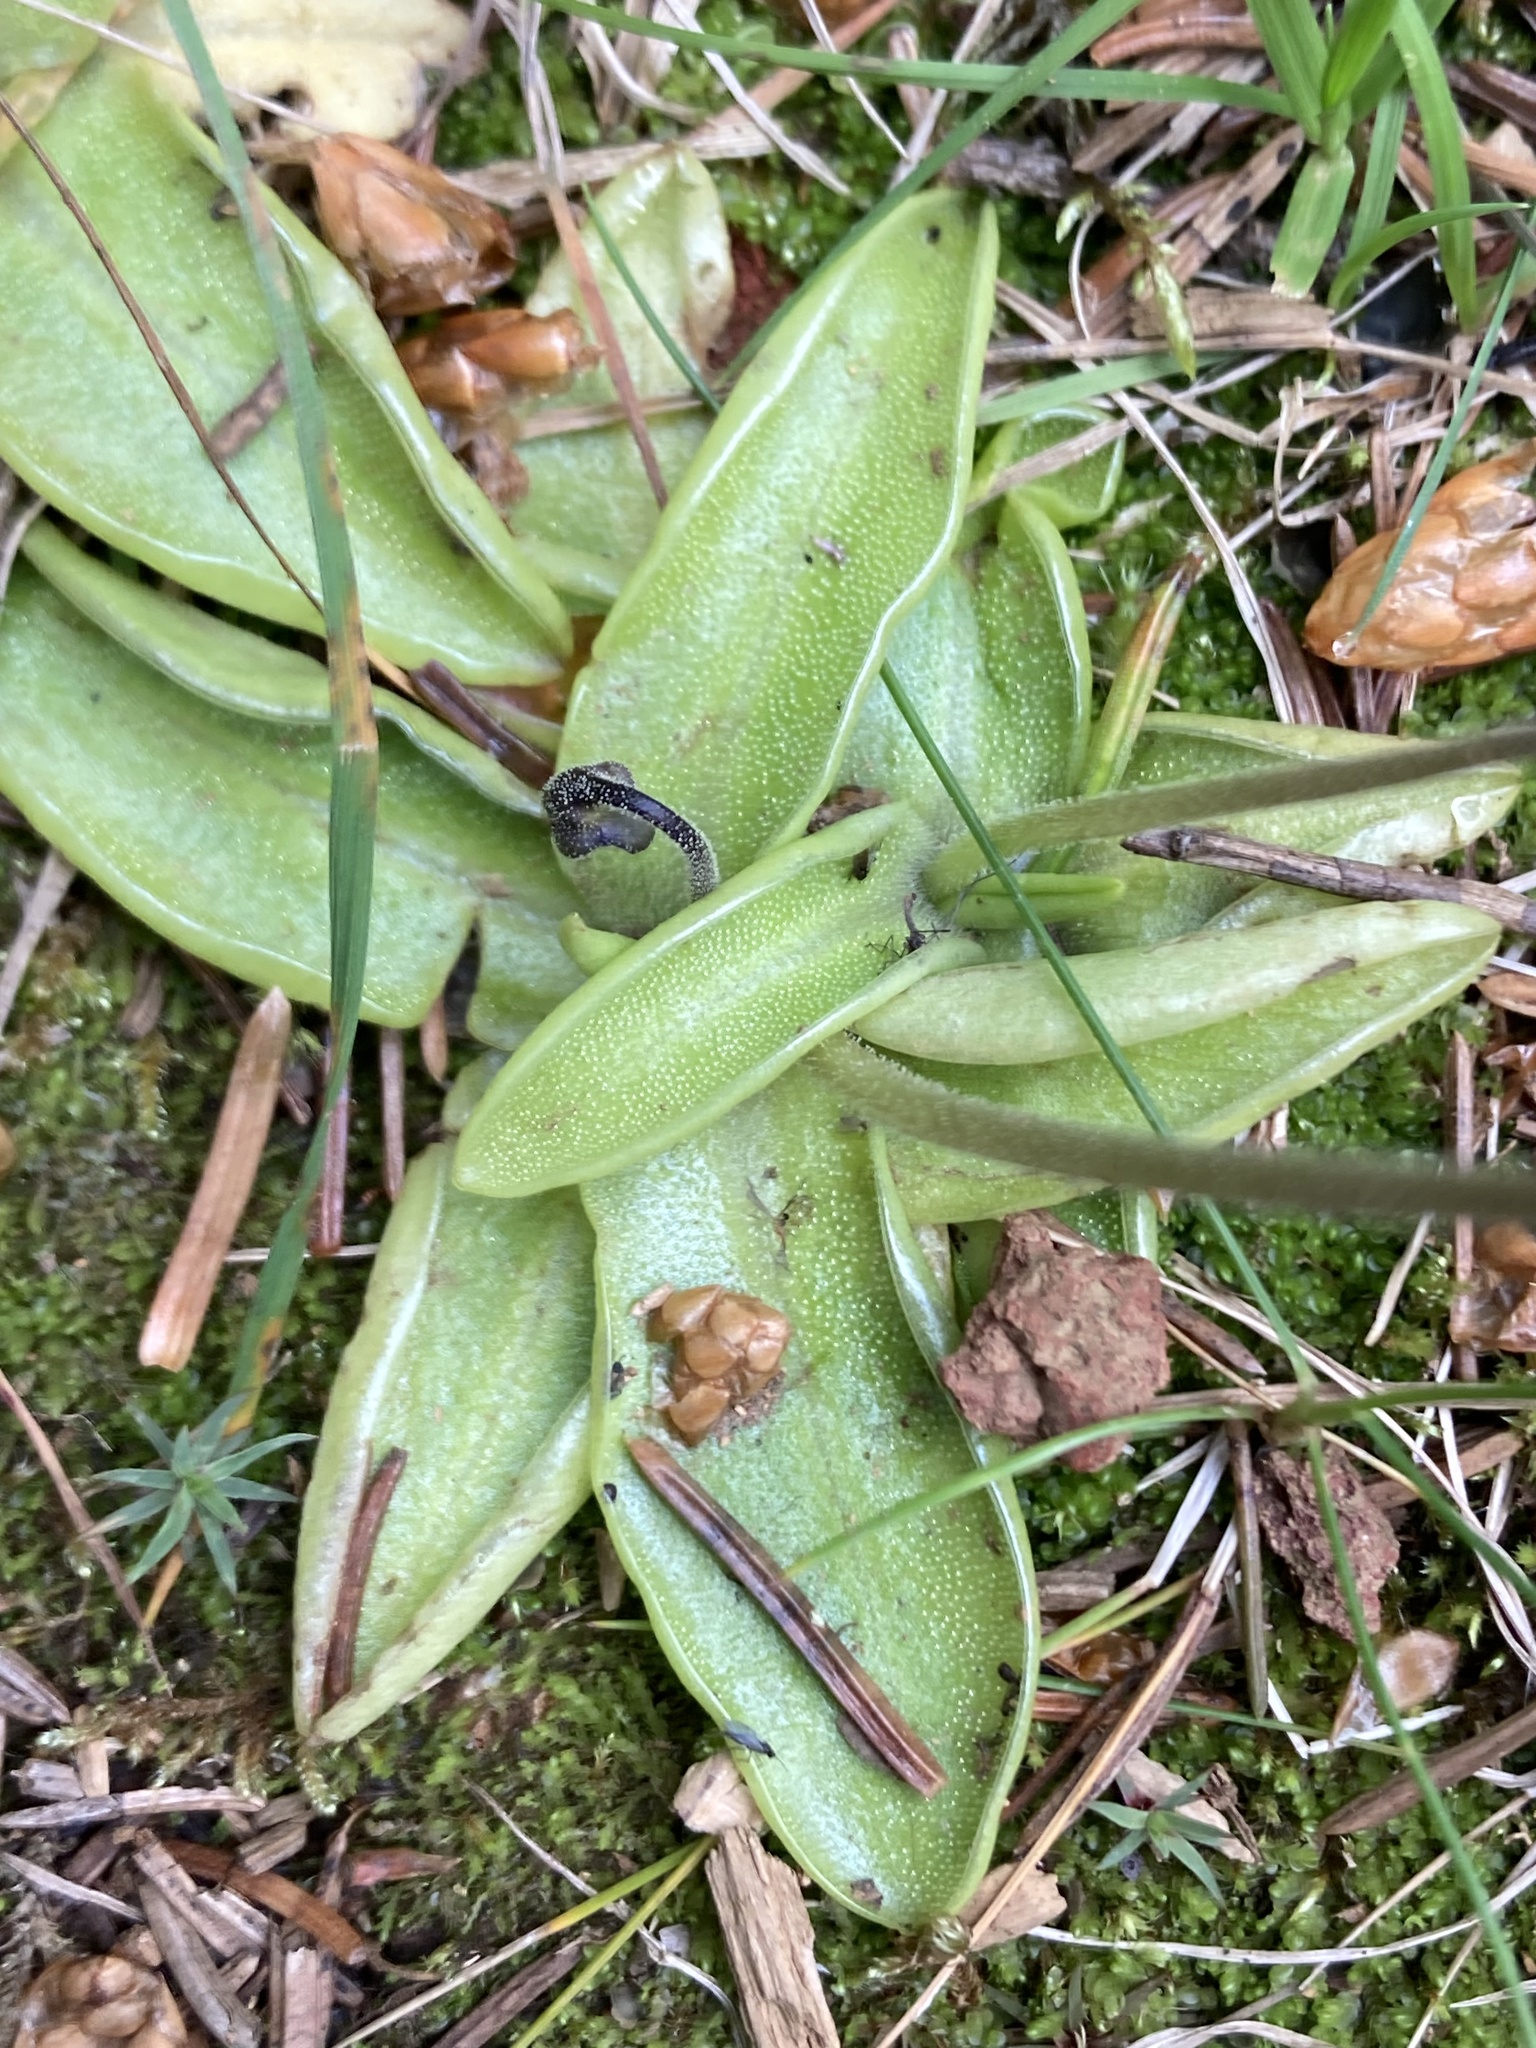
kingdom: Plantae
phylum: Tracheophyta
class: Magnoliopsida
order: Lamiales
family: Lentibulariaceae
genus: Pinguicula
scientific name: Pinguicula vulgaris
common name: Common butterwort
